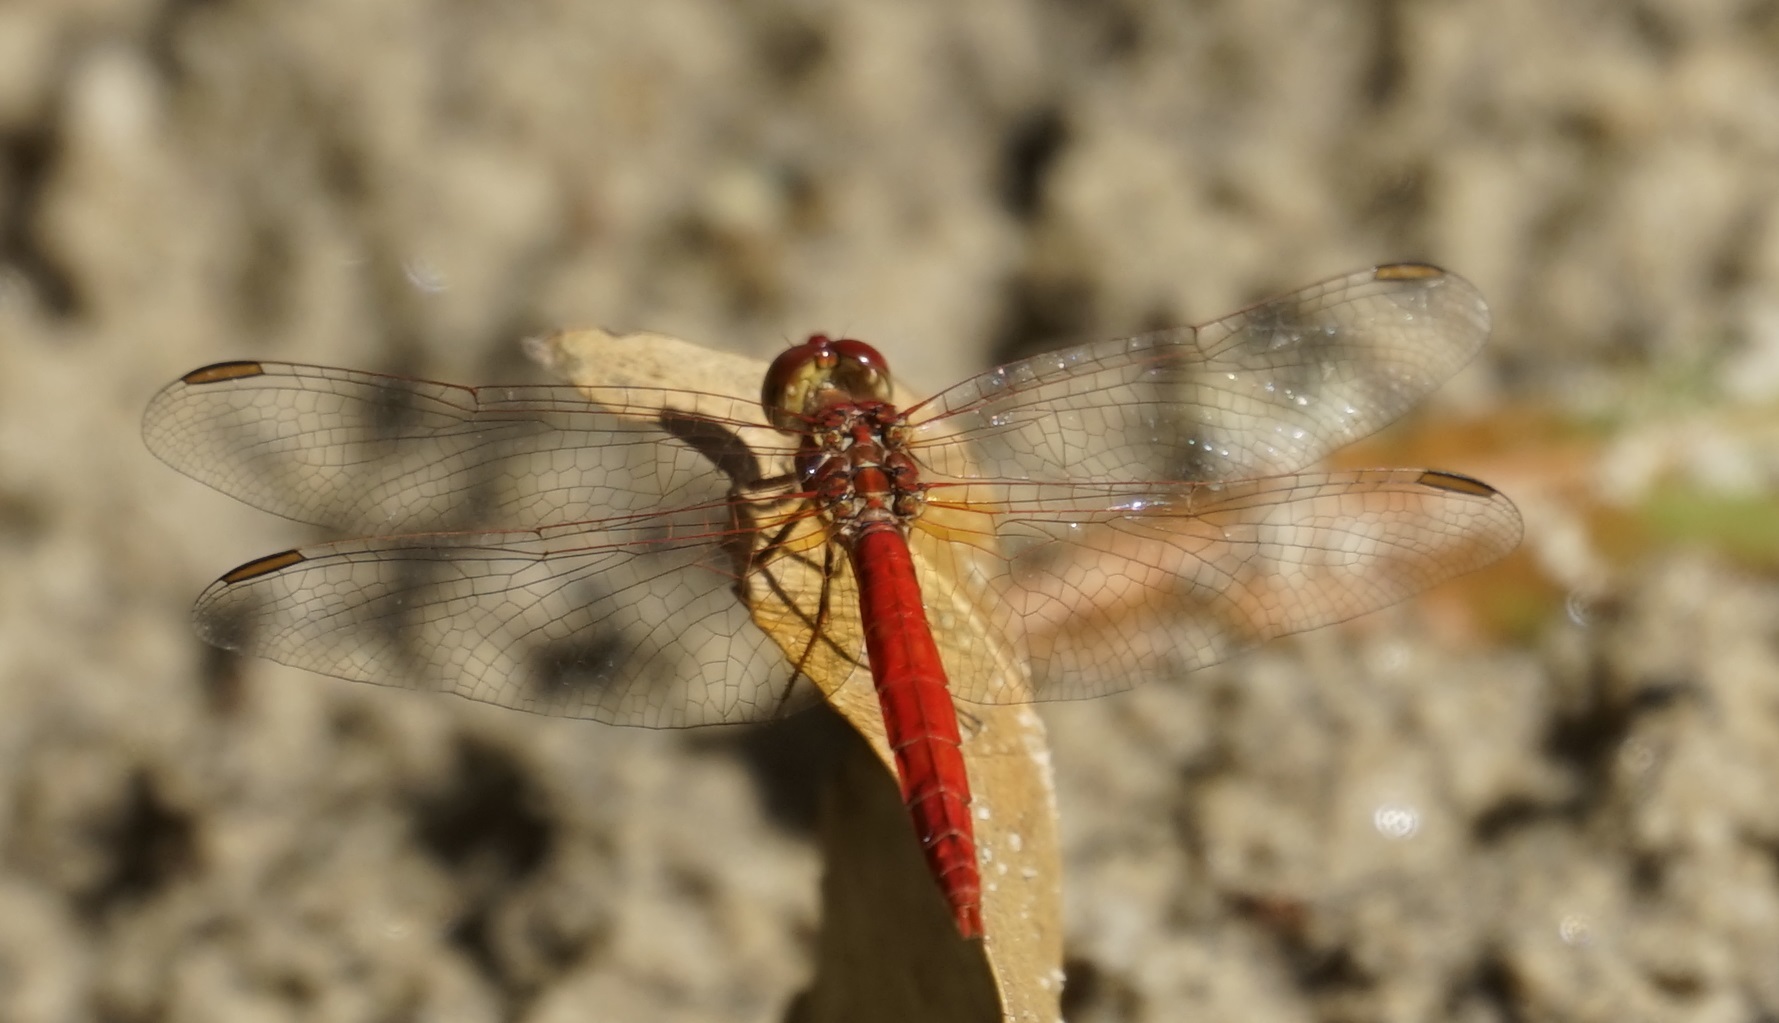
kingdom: Animalia
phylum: Arthropoda
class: Insecta
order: Odonata
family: Libellulidae
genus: Diplacodes
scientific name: Diplacodes haematodes
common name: Scarlet percher
